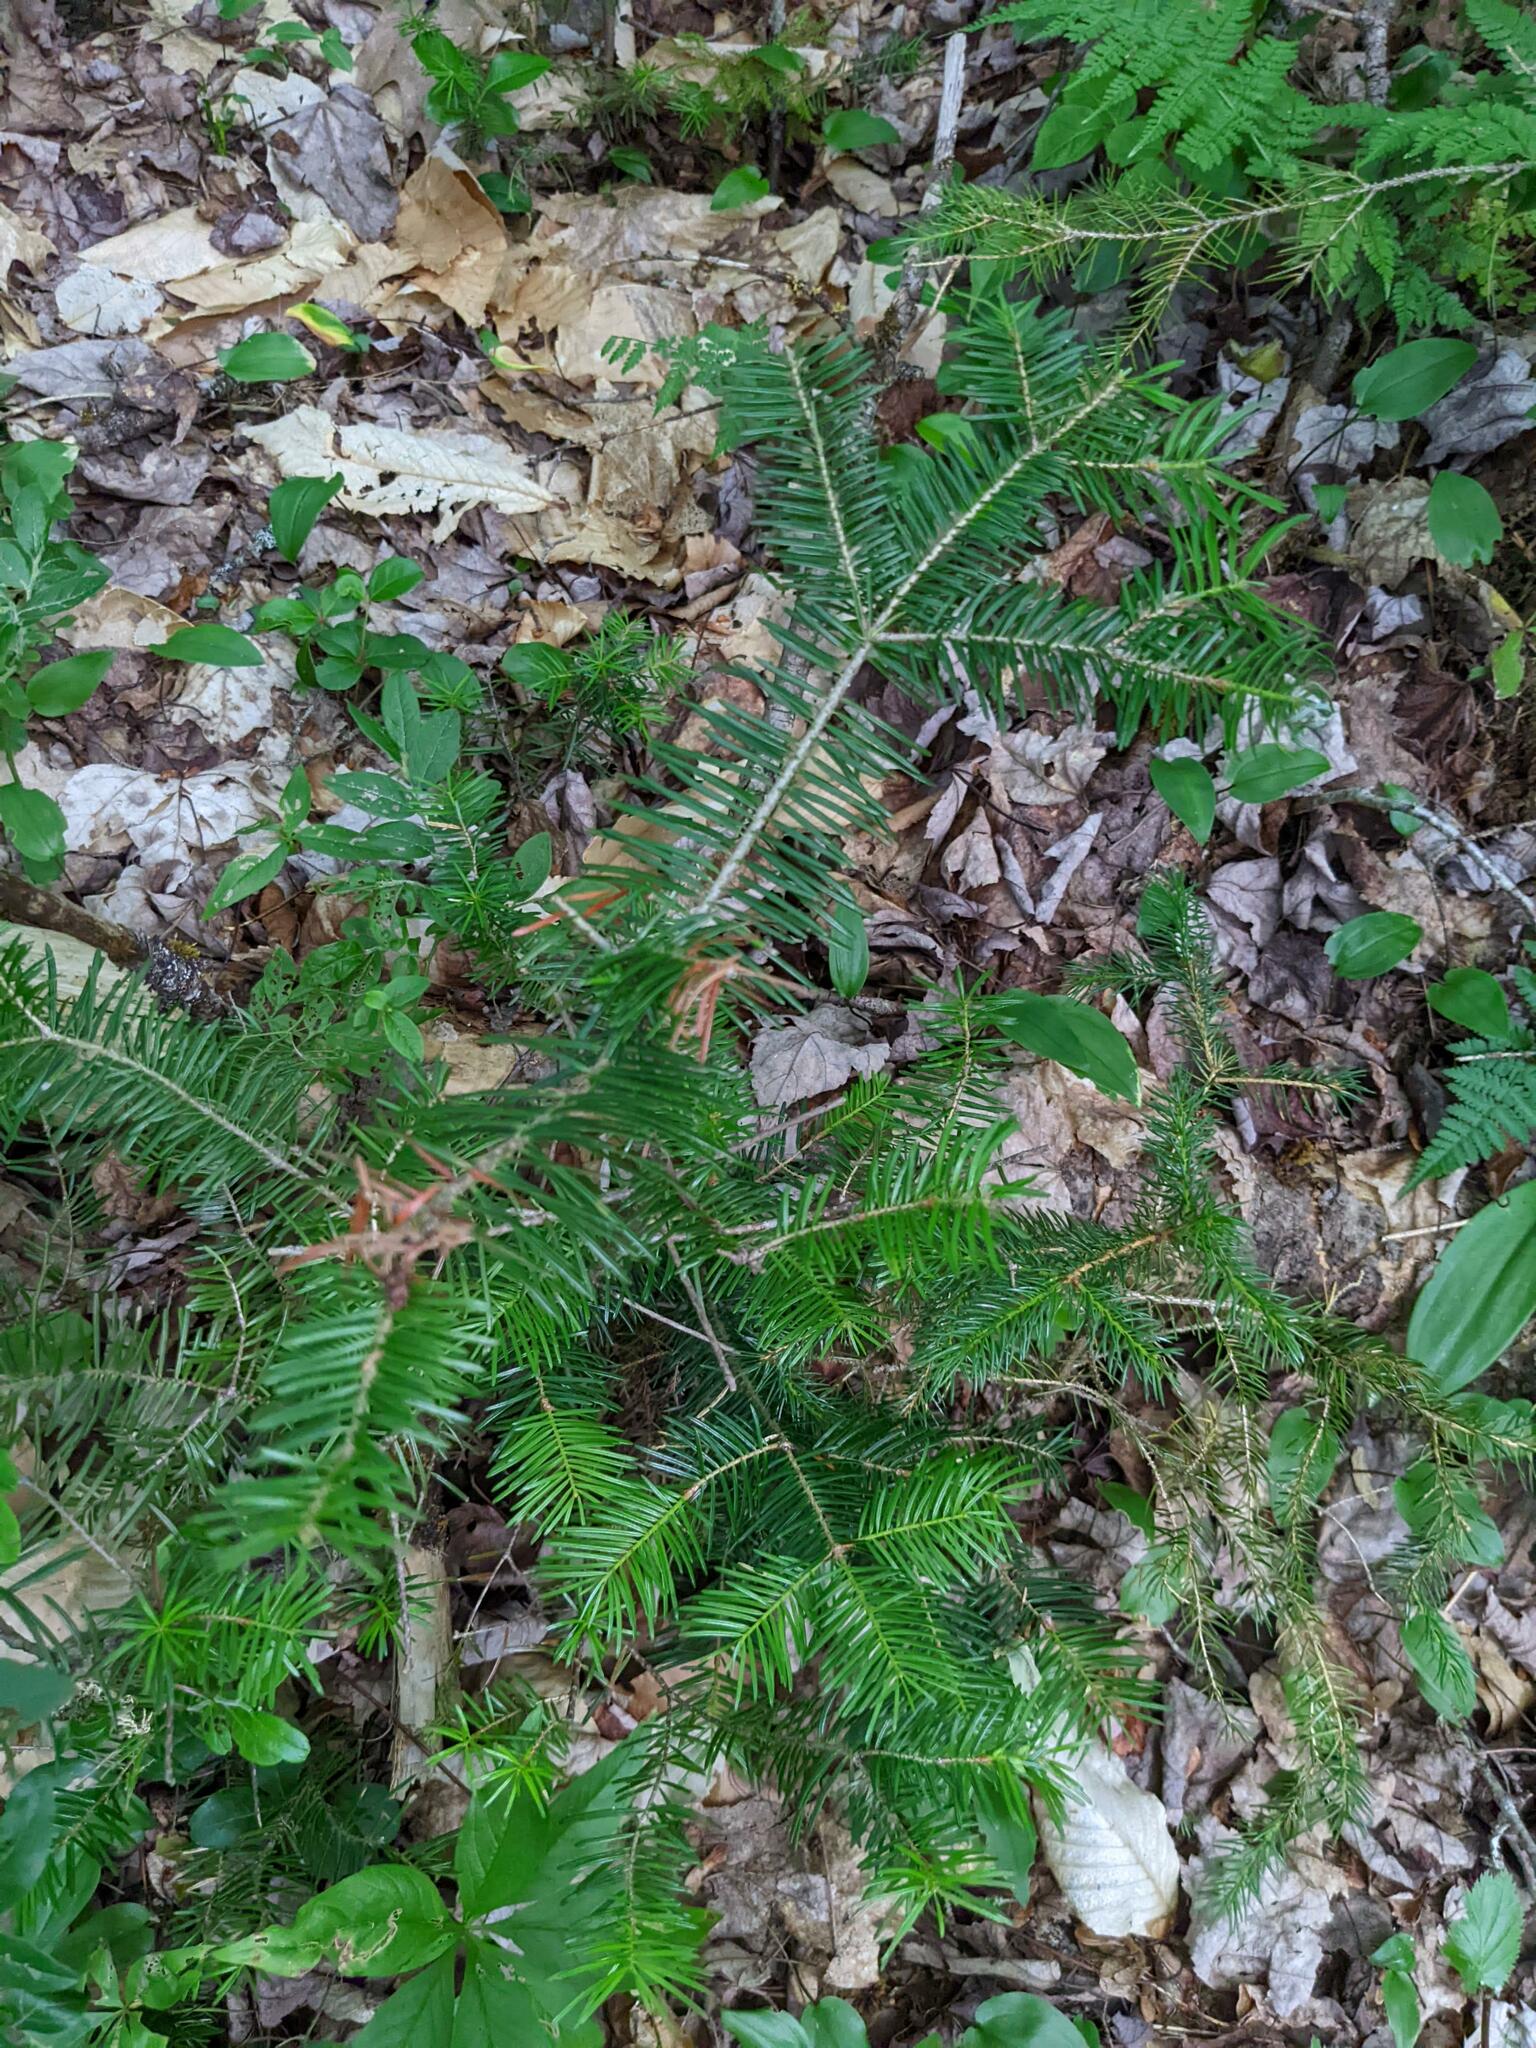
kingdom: Plantae
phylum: Tracheophyta
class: Pinopsida
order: Pinales
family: Pinaceae
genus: Abies
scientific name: Abies balsamea
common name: Balsam fir
